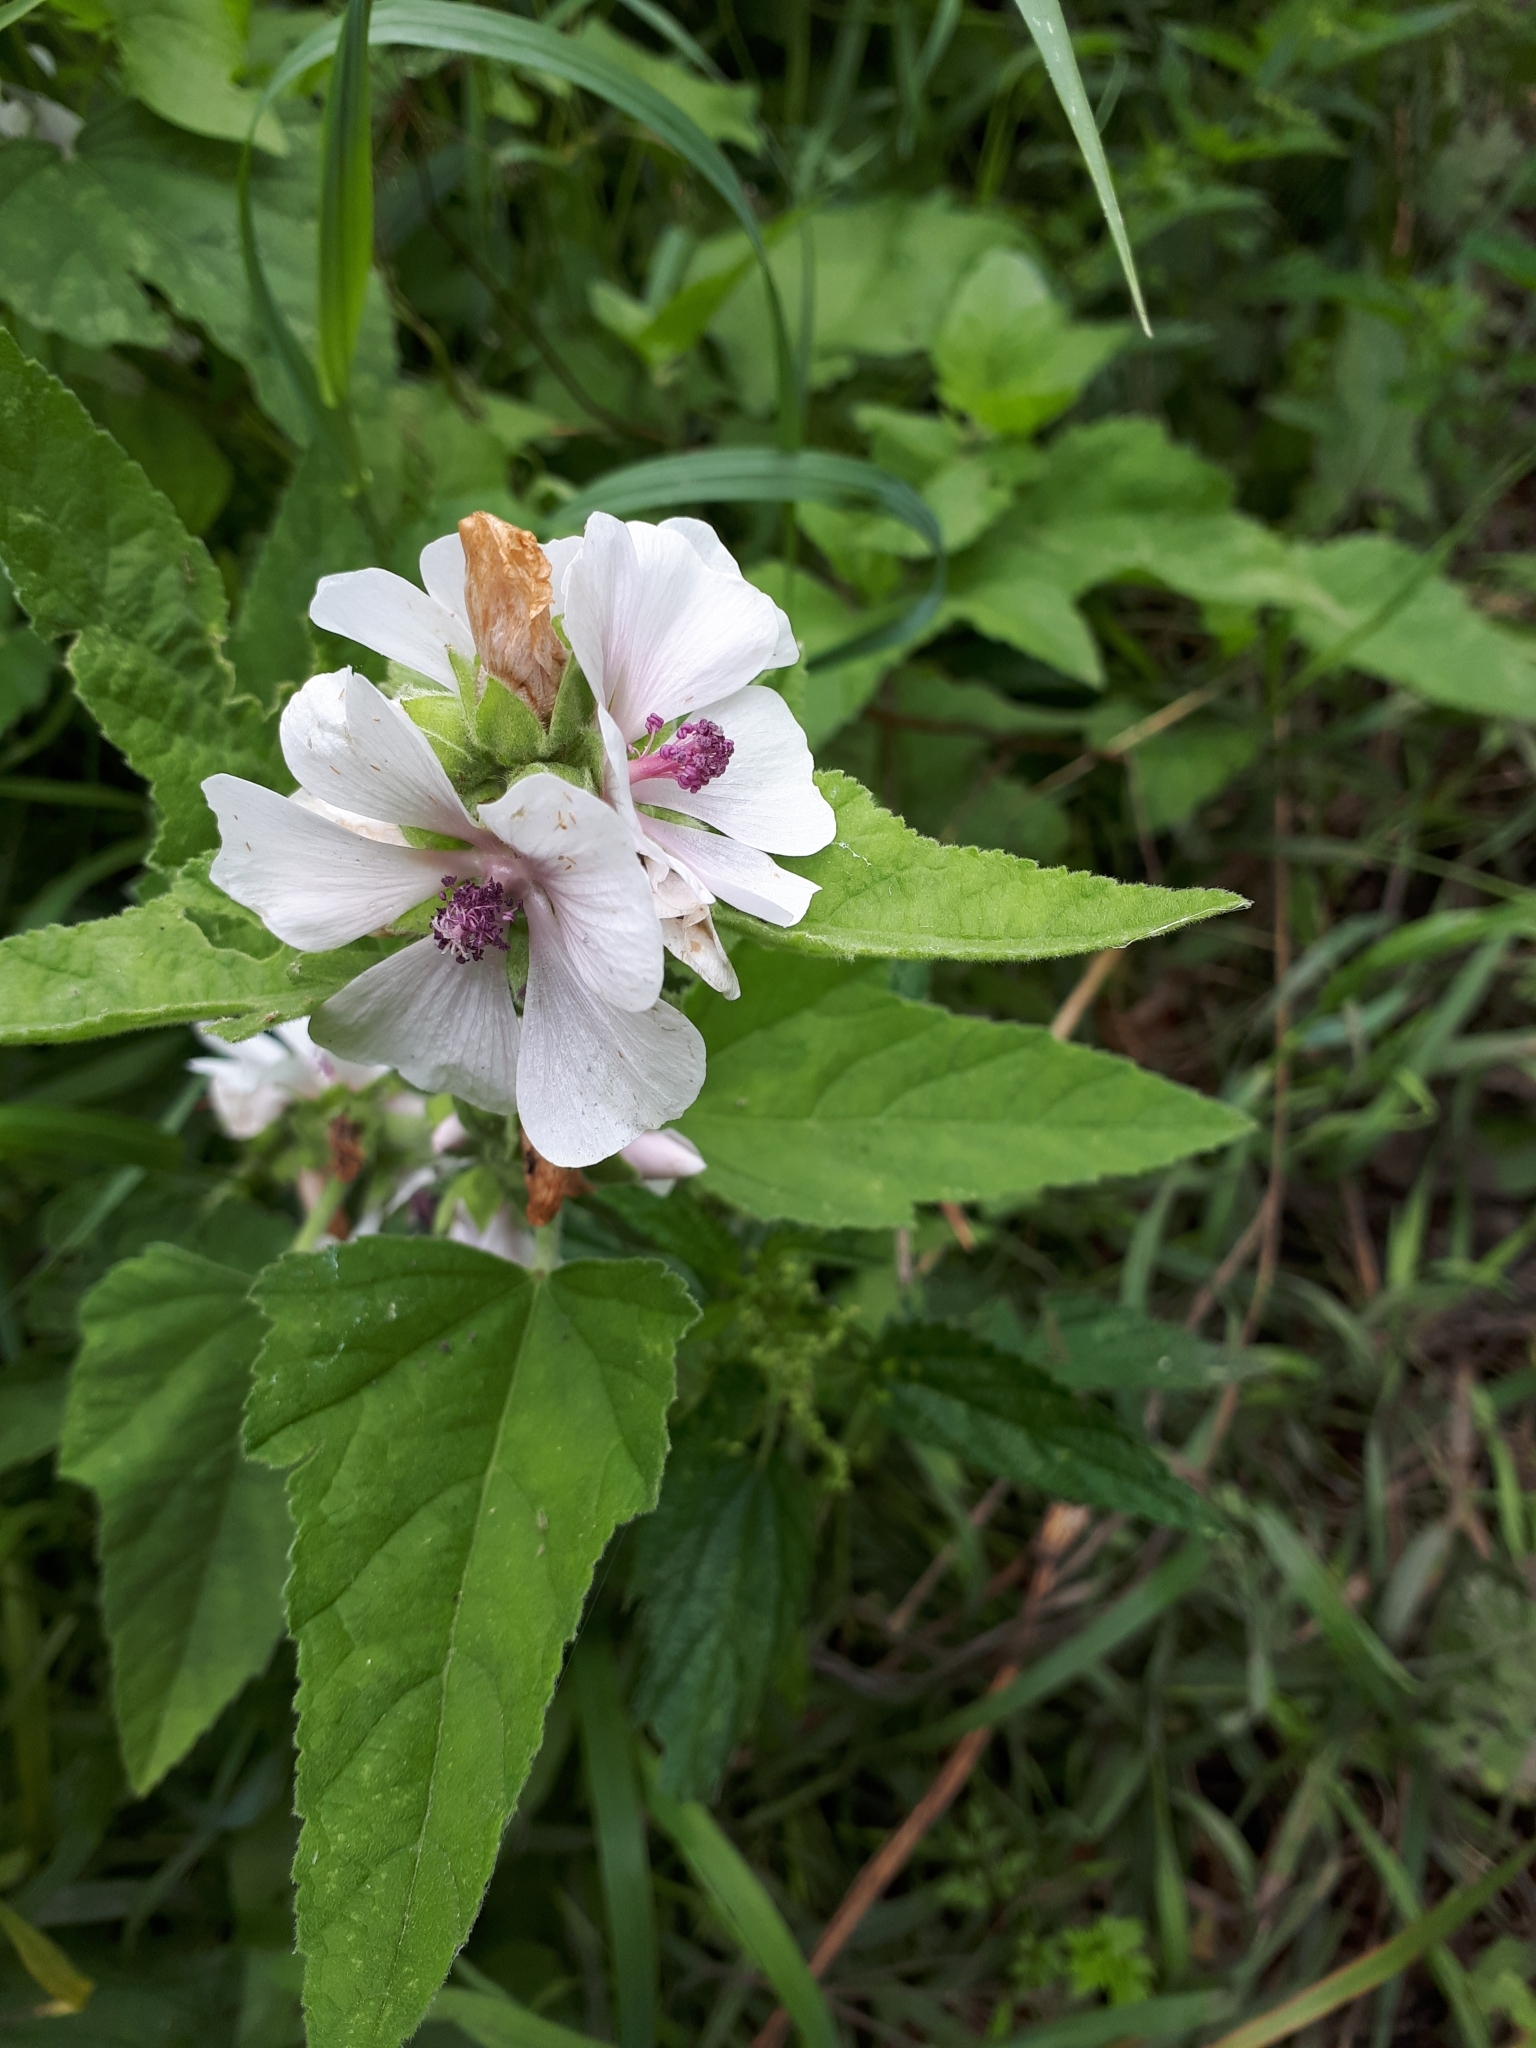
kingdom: Plantae
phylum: Tracheophyta
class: Magnoliopsida
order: Malvales
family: Malvaceae
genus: Althaea
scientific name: Althaea officinalis
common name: Marsh-mallow
